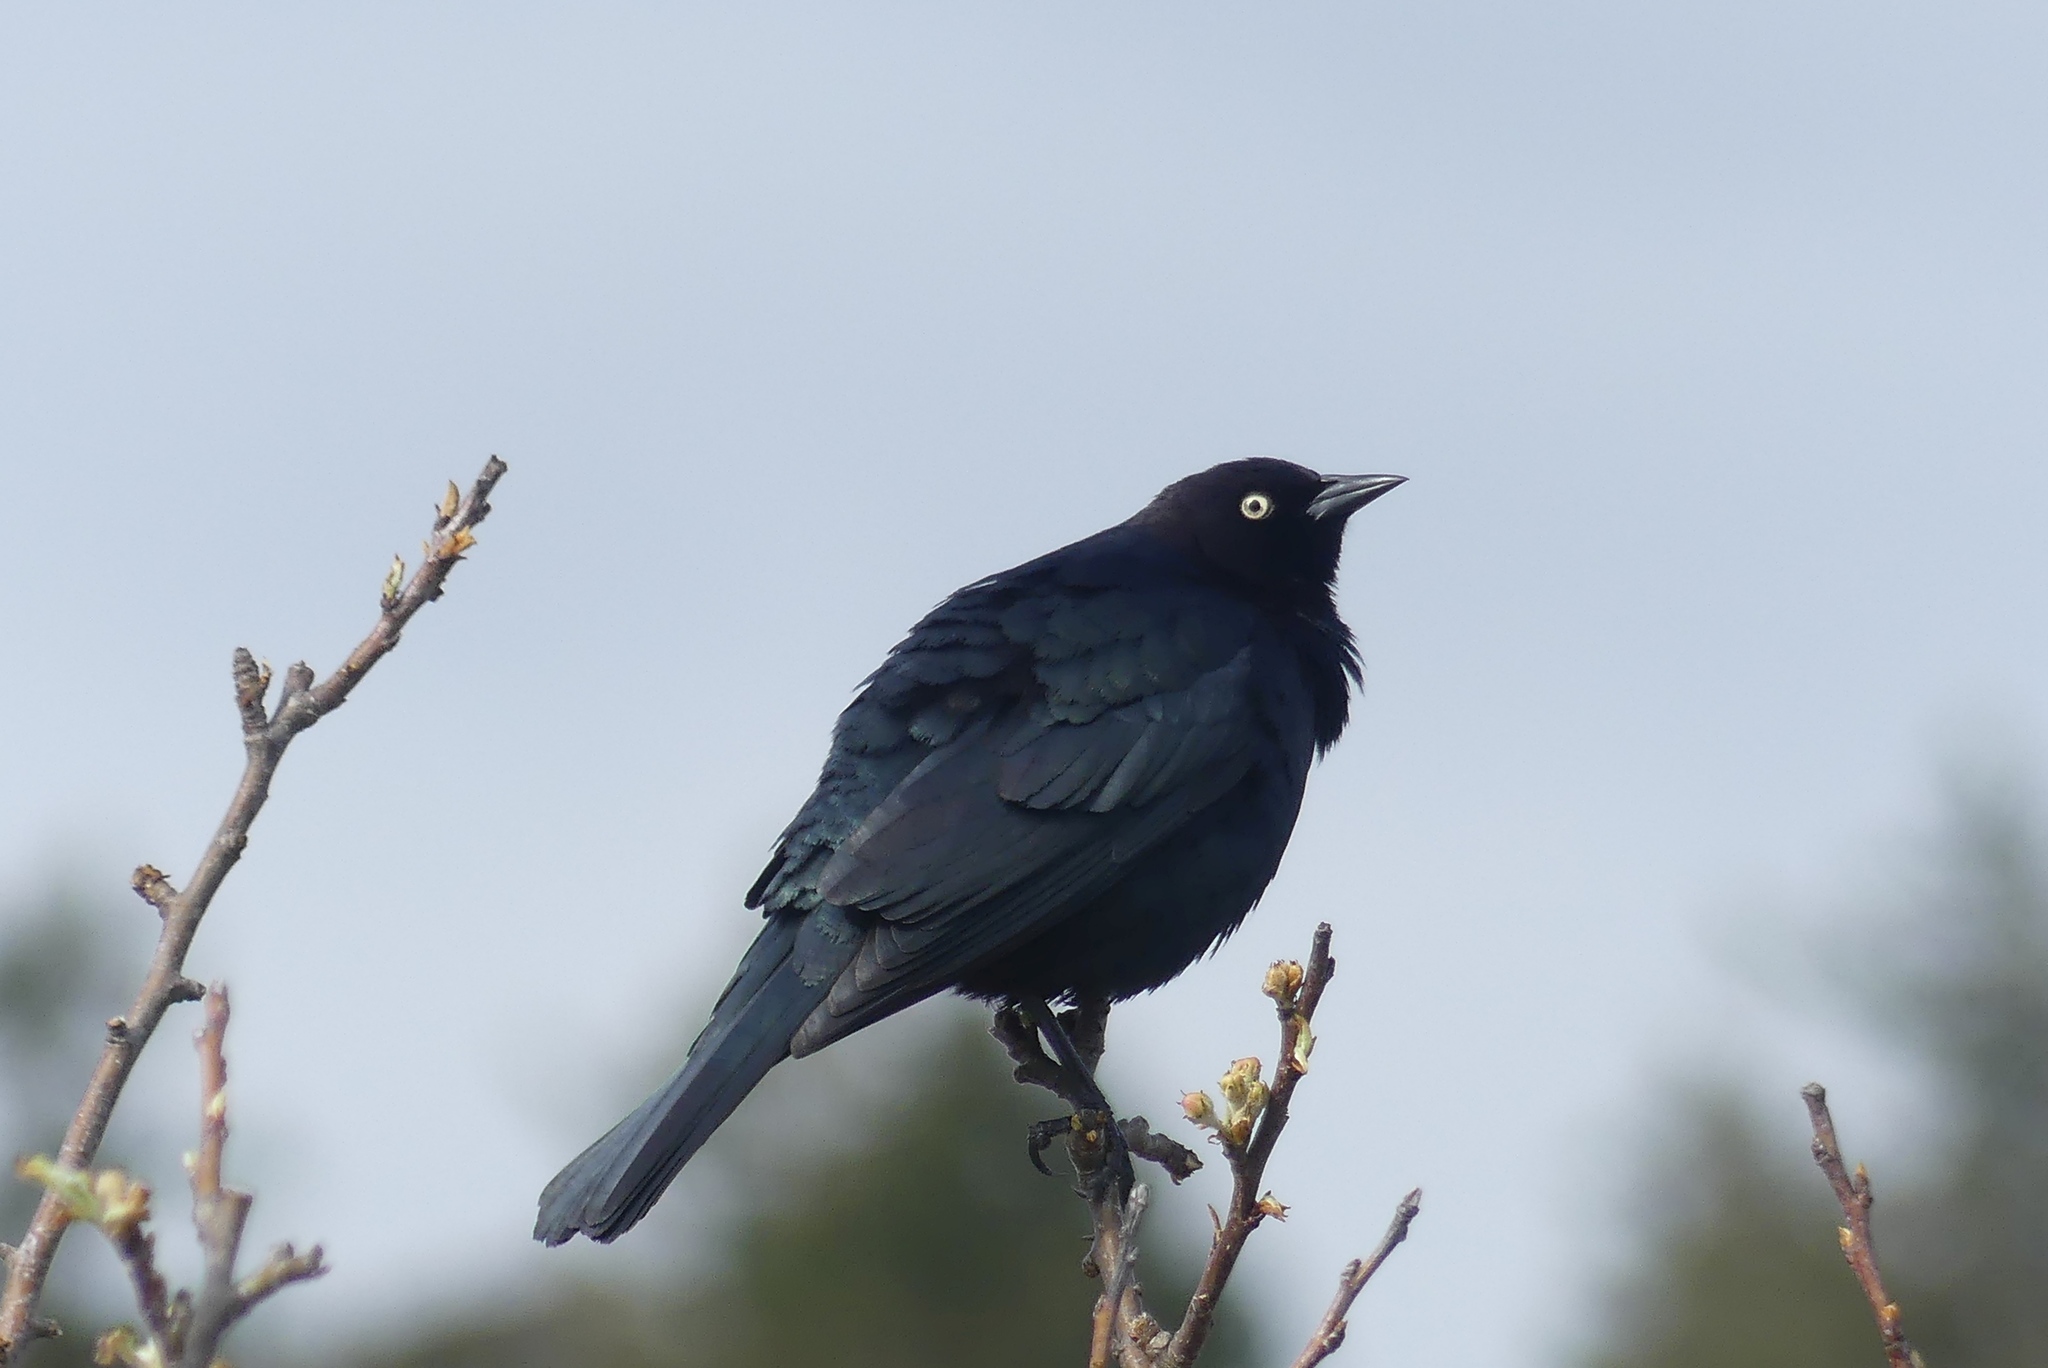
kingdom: Animalia
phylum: Chordata
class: Aves
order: Passeriformes
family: Icteridae
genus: Euphagus
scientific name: Euphagus cyanocephalus
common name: Brewer's blackbird
